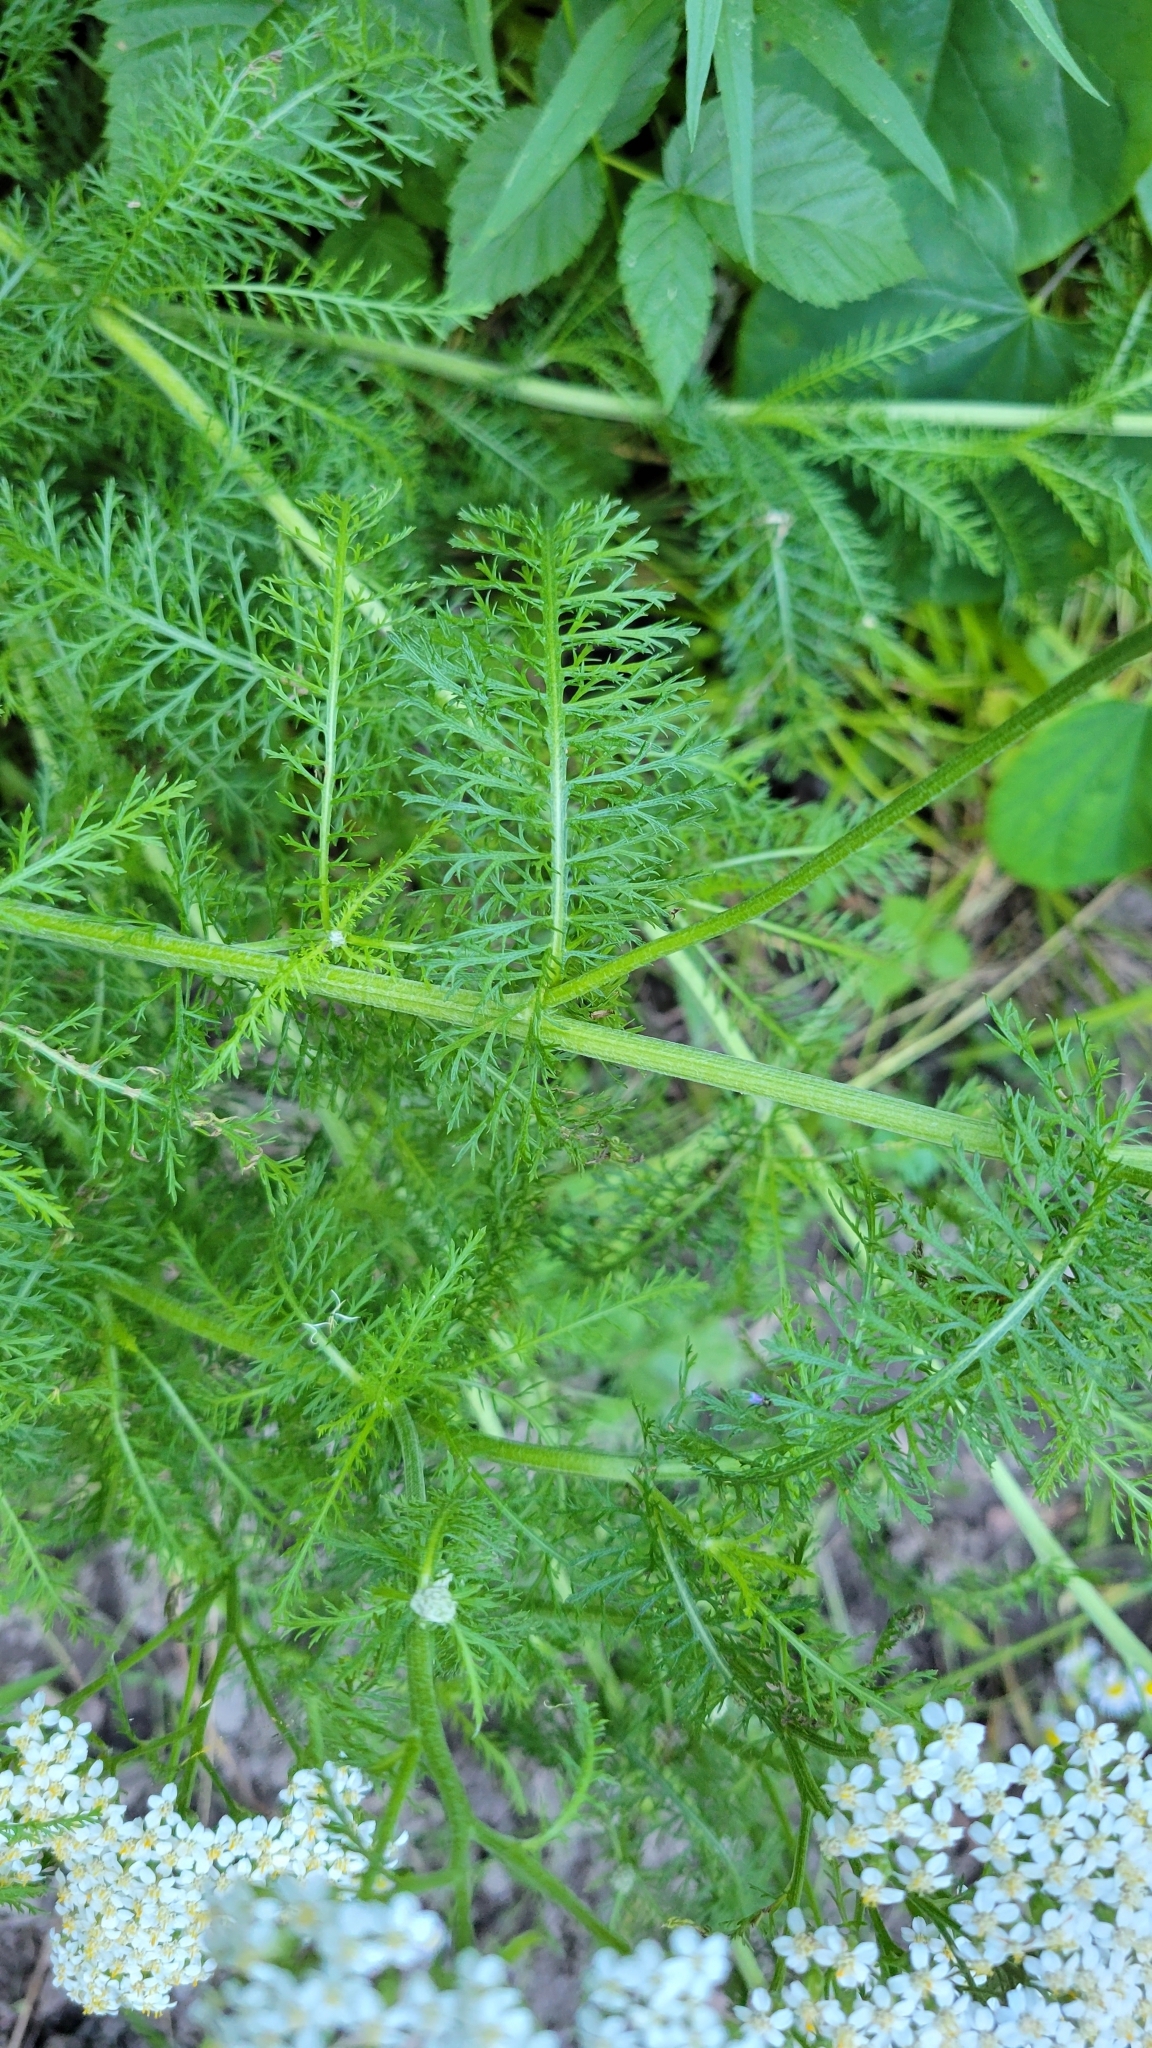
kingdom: Plantae
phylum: Tracheophyta
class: Magnoliopsida
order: Asterales
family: Asteraceae
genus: Achillea
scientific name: Achillea millefolium
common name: Yarrow
